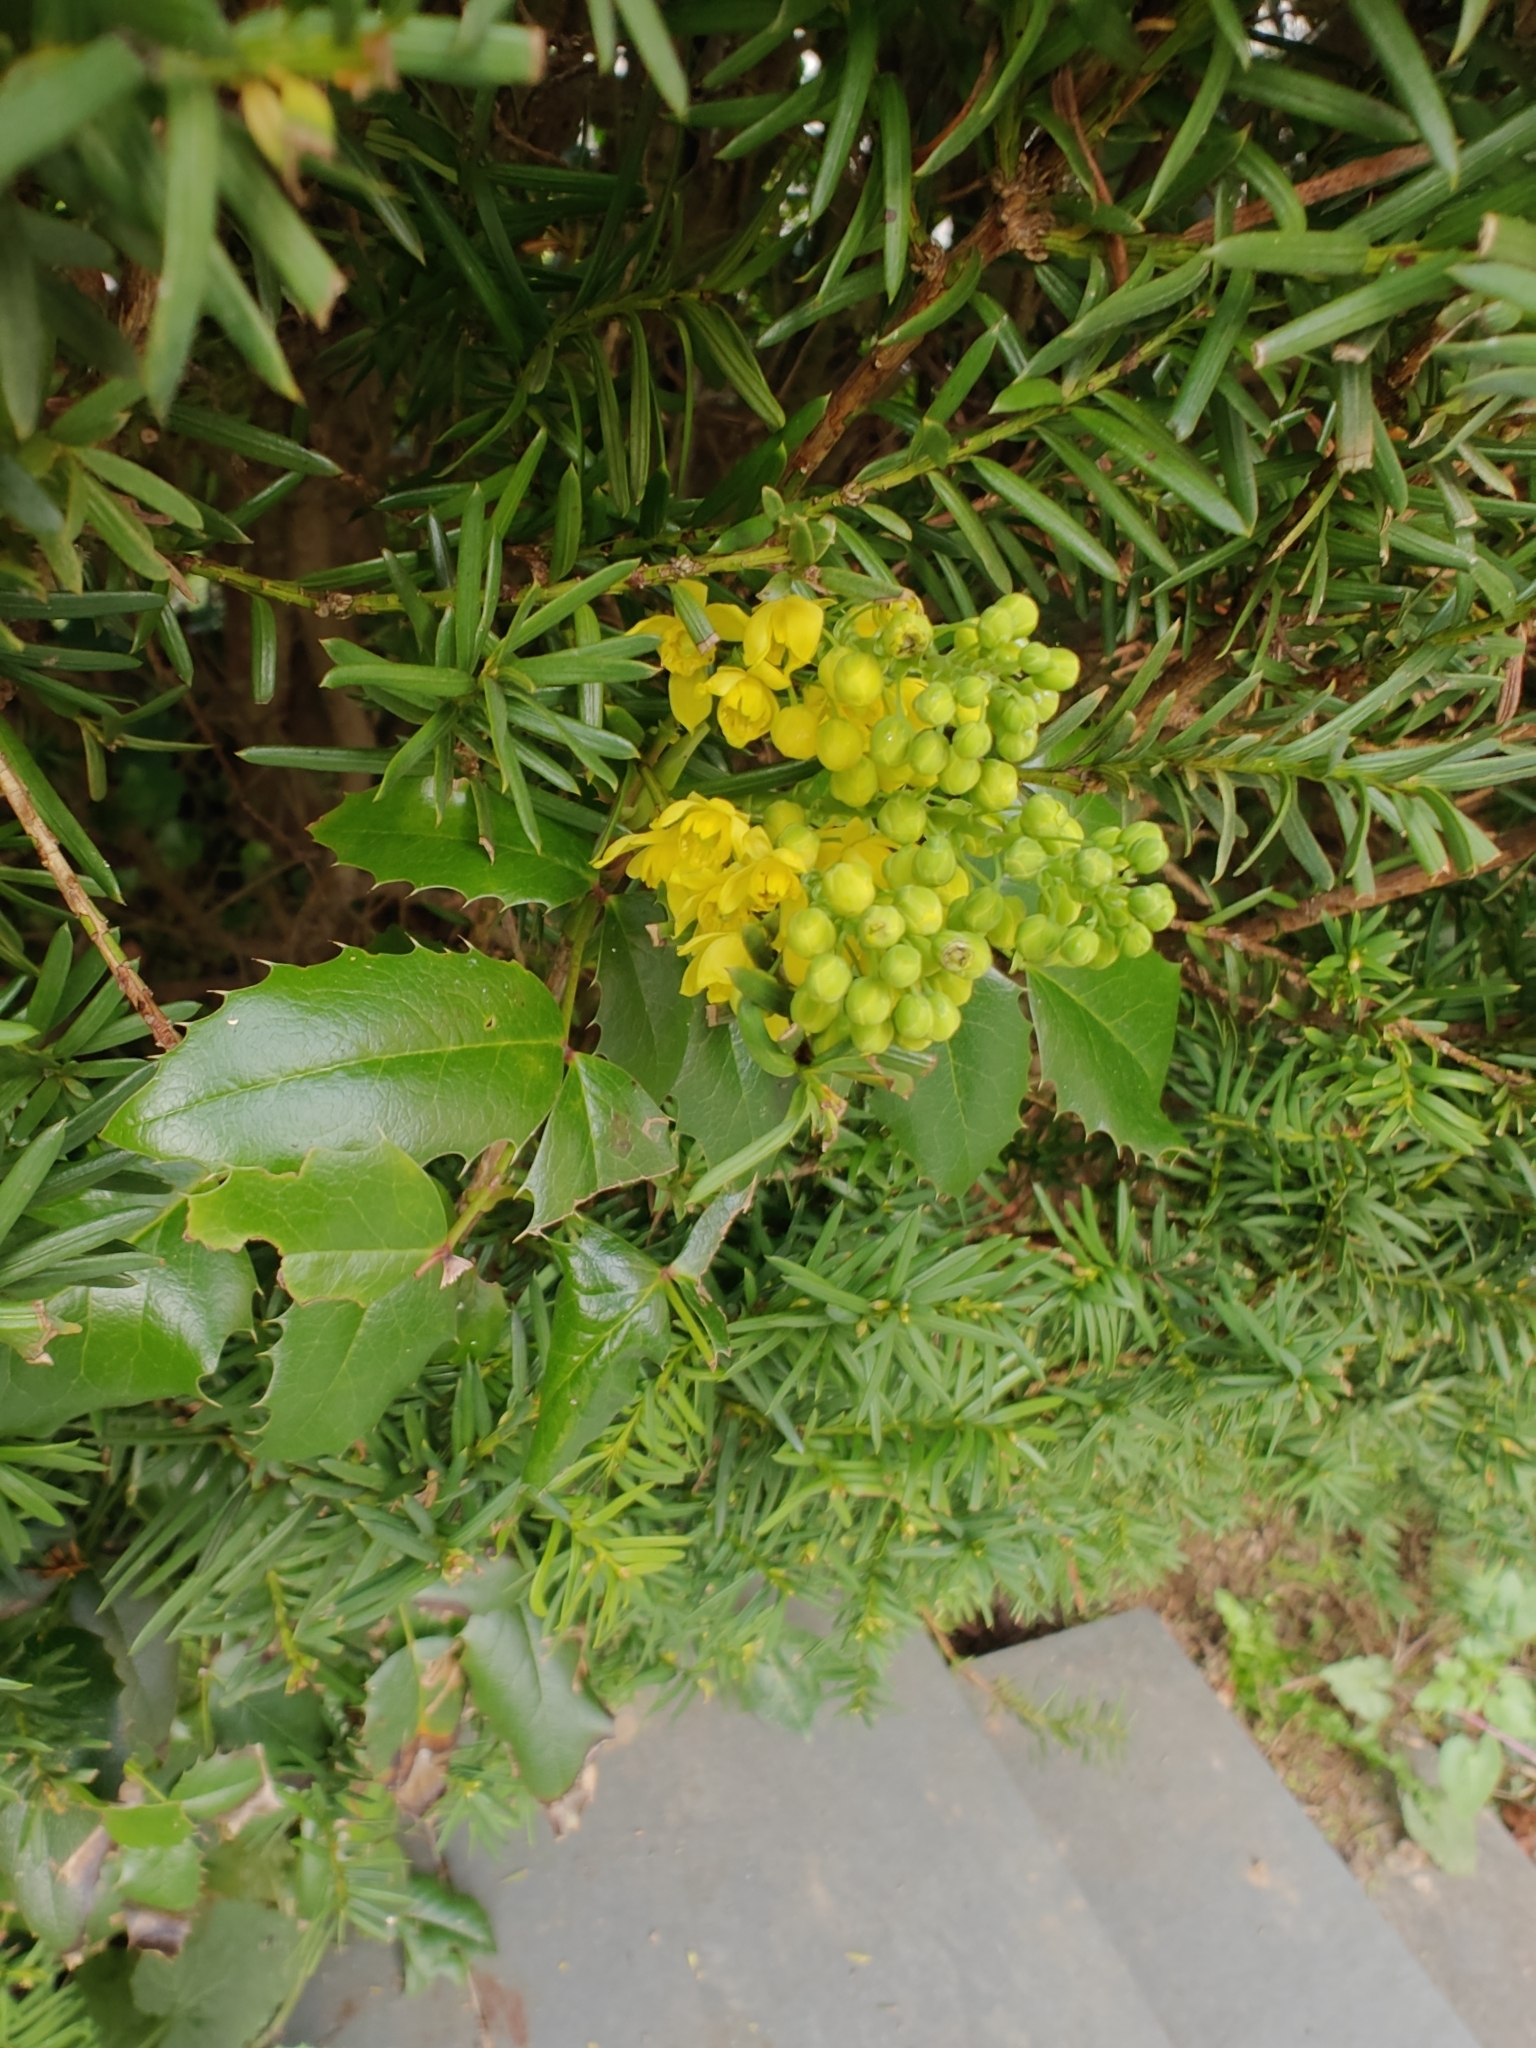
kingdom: Plantae
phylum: Tracheophyta
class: Magnoliopsida
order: Ranunculales
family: Berberidaceae
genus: Mahonia
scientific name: Mahonia aquifolium
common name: Oregon-grape
